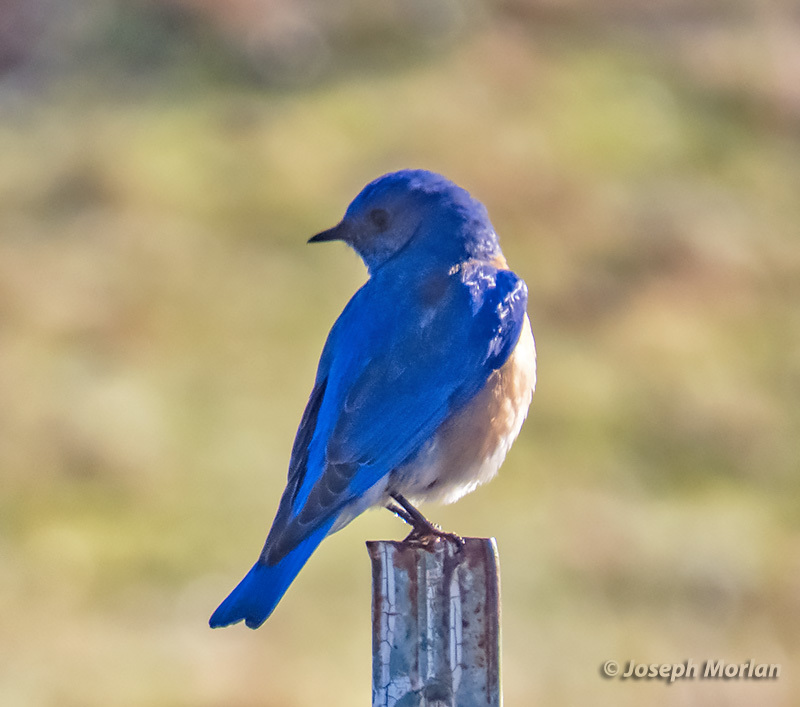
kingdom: Animalia
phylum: Chordata
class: Aves
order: Passeriformes
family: Turdidae
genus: Sialia
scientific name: Sialia mexicana
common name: Western bluebird
